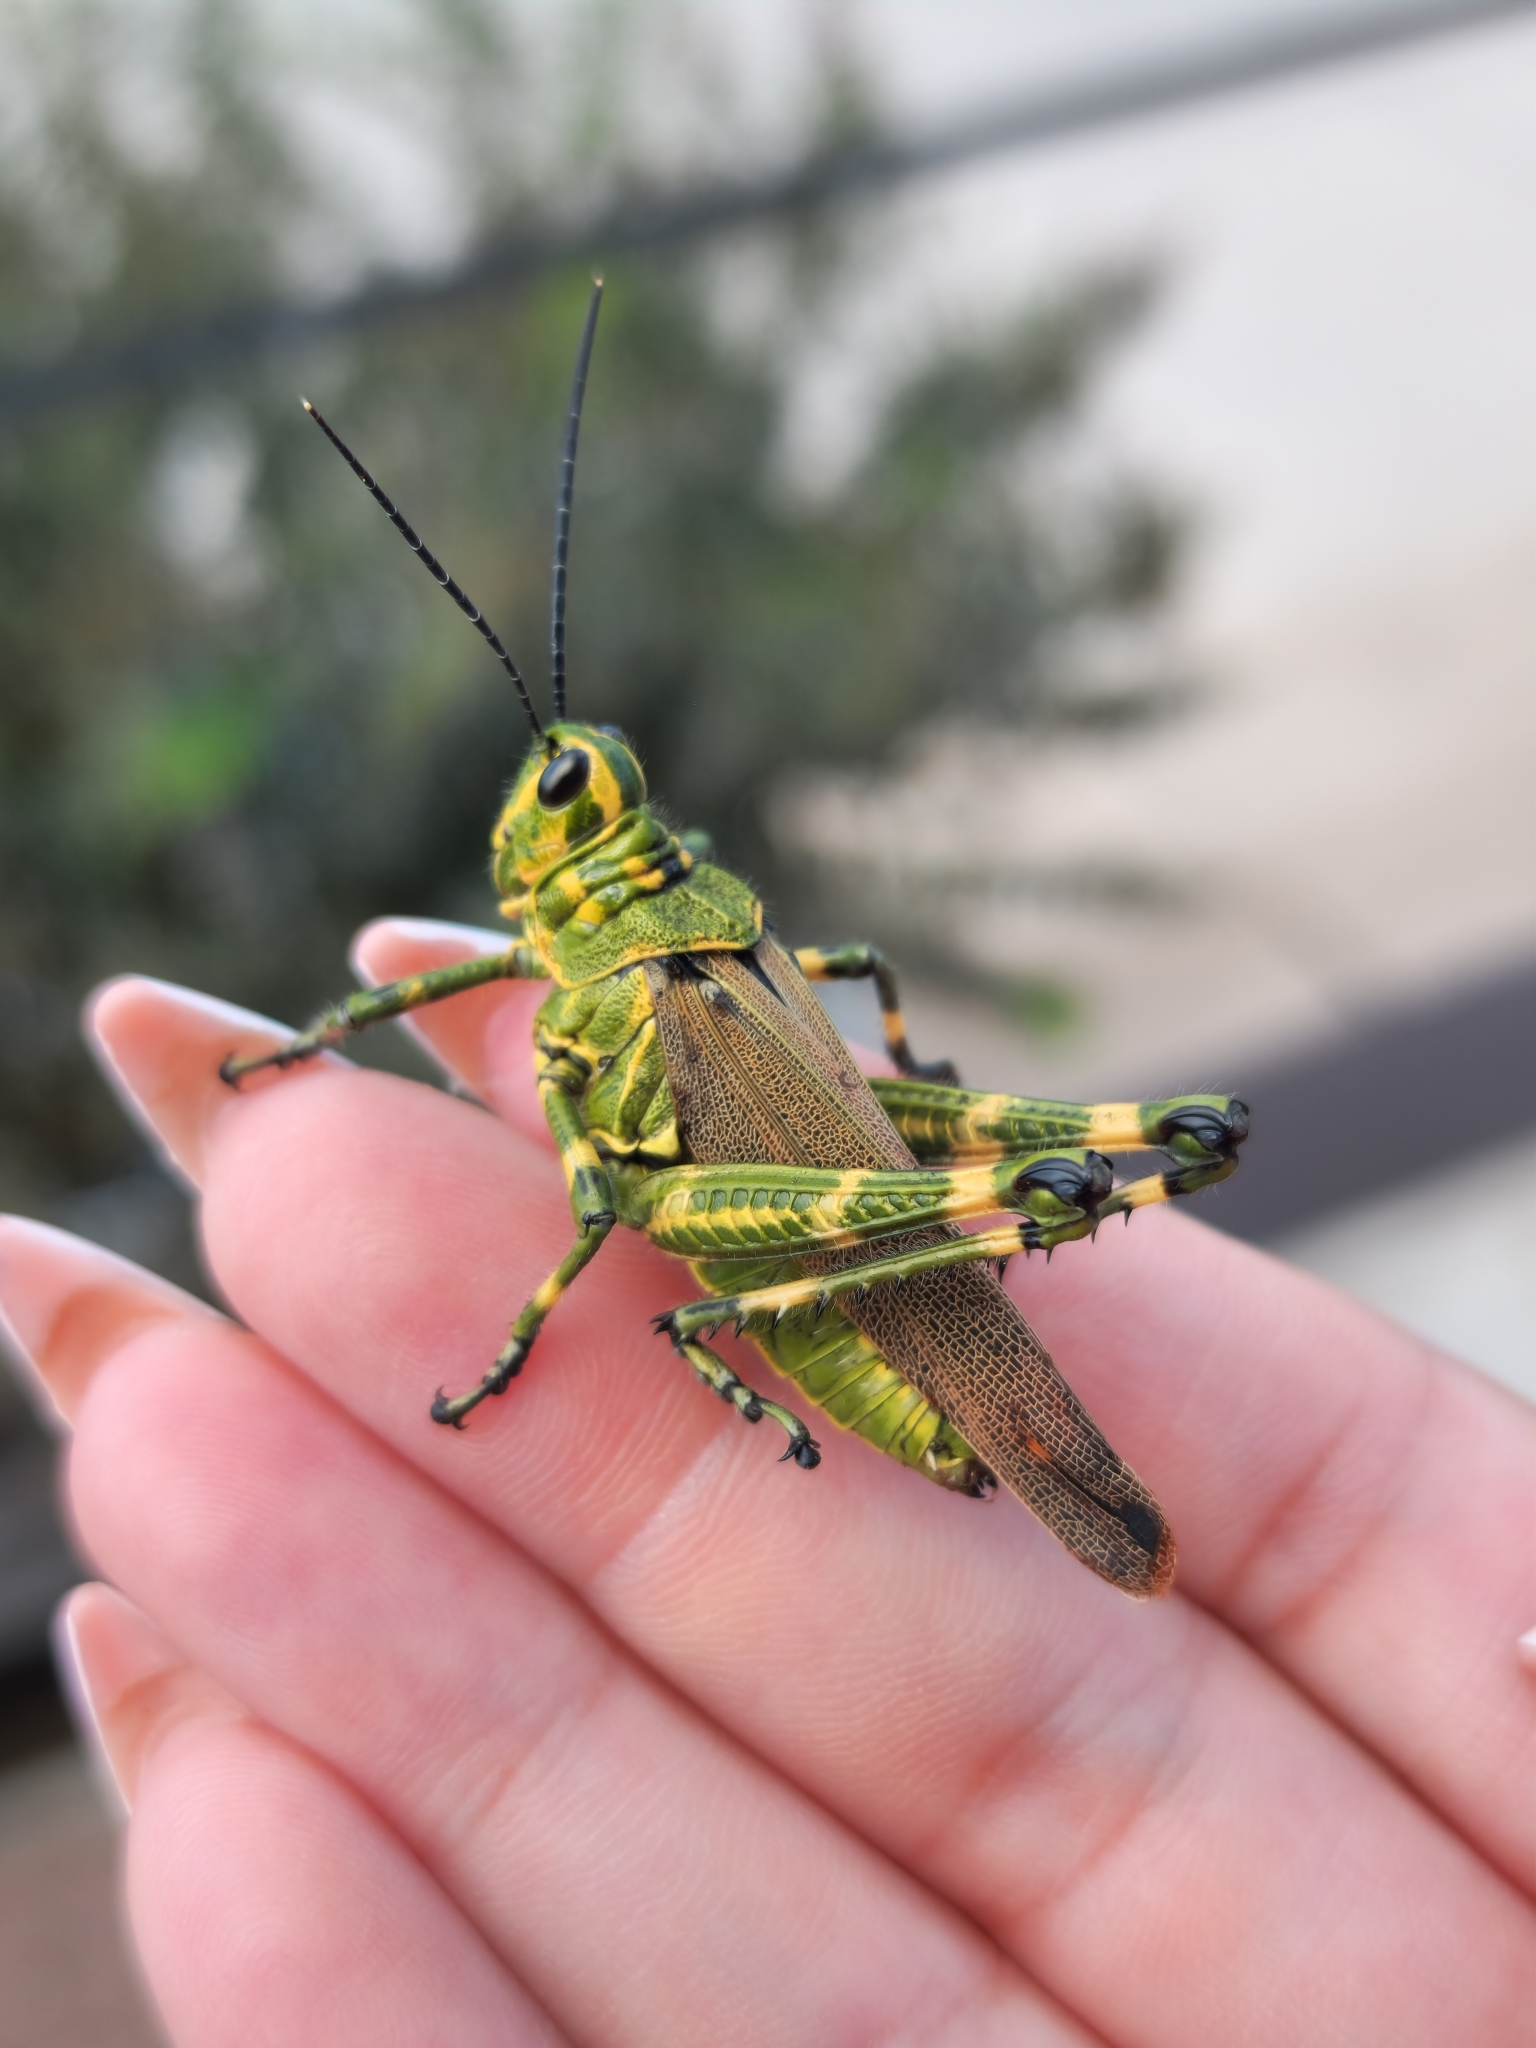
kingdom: Animalia
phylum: Arthropoda
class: Insecta
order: Orthoptera
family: Romaleidae
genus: Chromacris
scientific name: Chromacris speciosa
